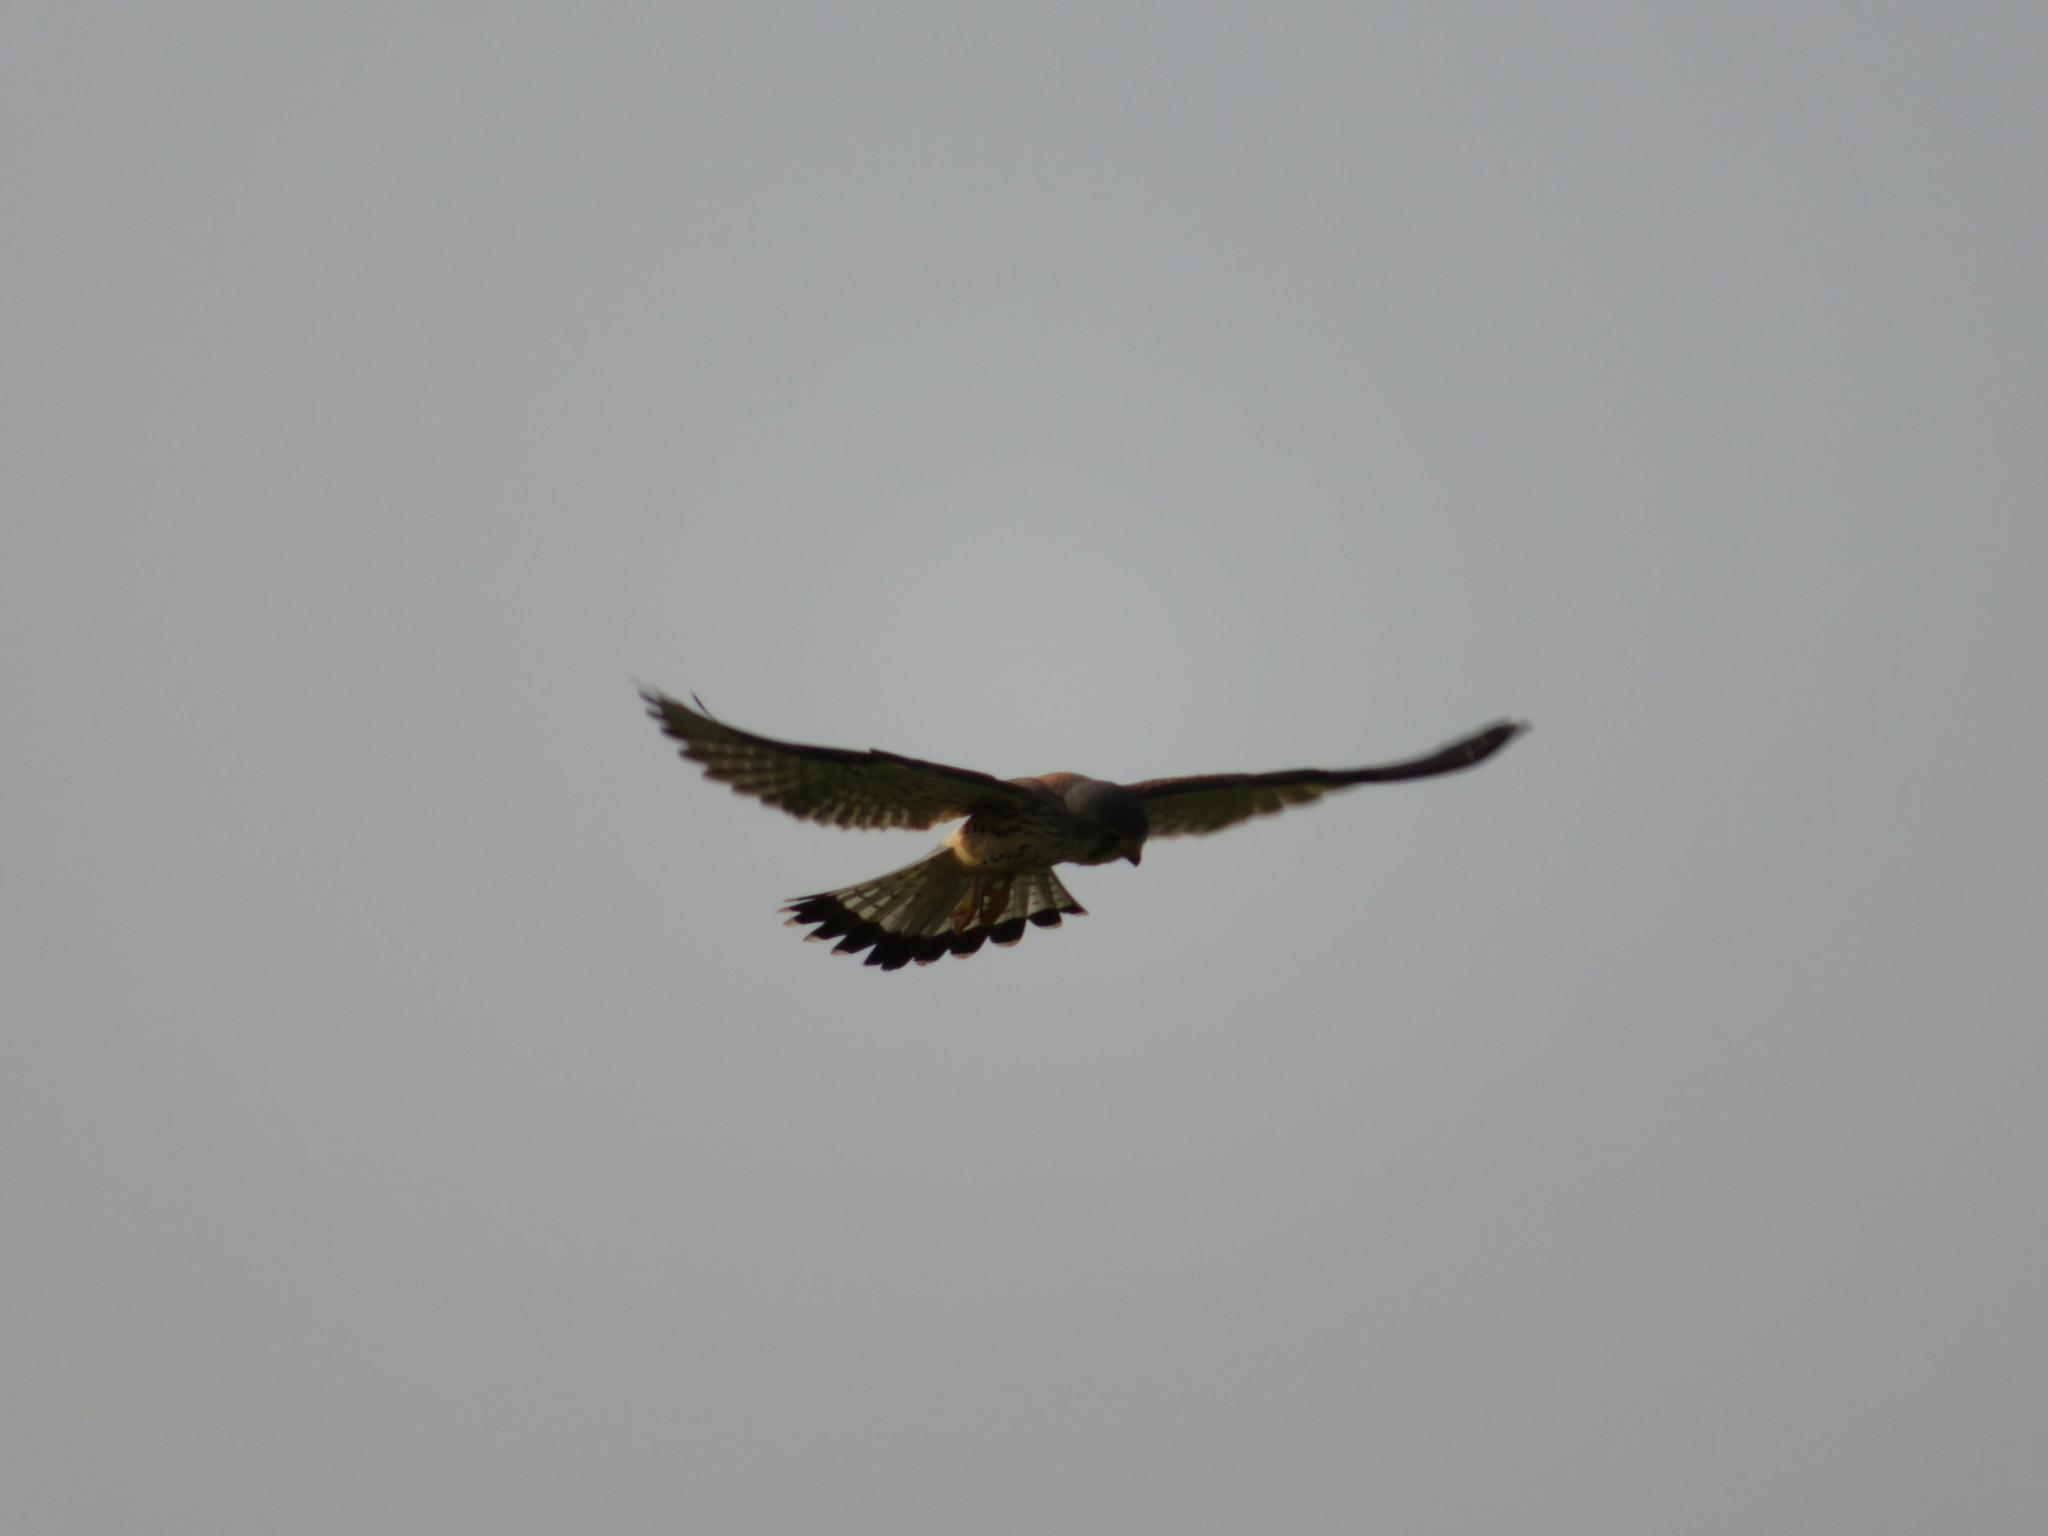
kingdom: Animalia
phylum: Chordata
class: Aves
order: Falconiformes
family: Falconidae
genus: Falco
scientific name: Falco tinnunculus
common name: Common kestrel
